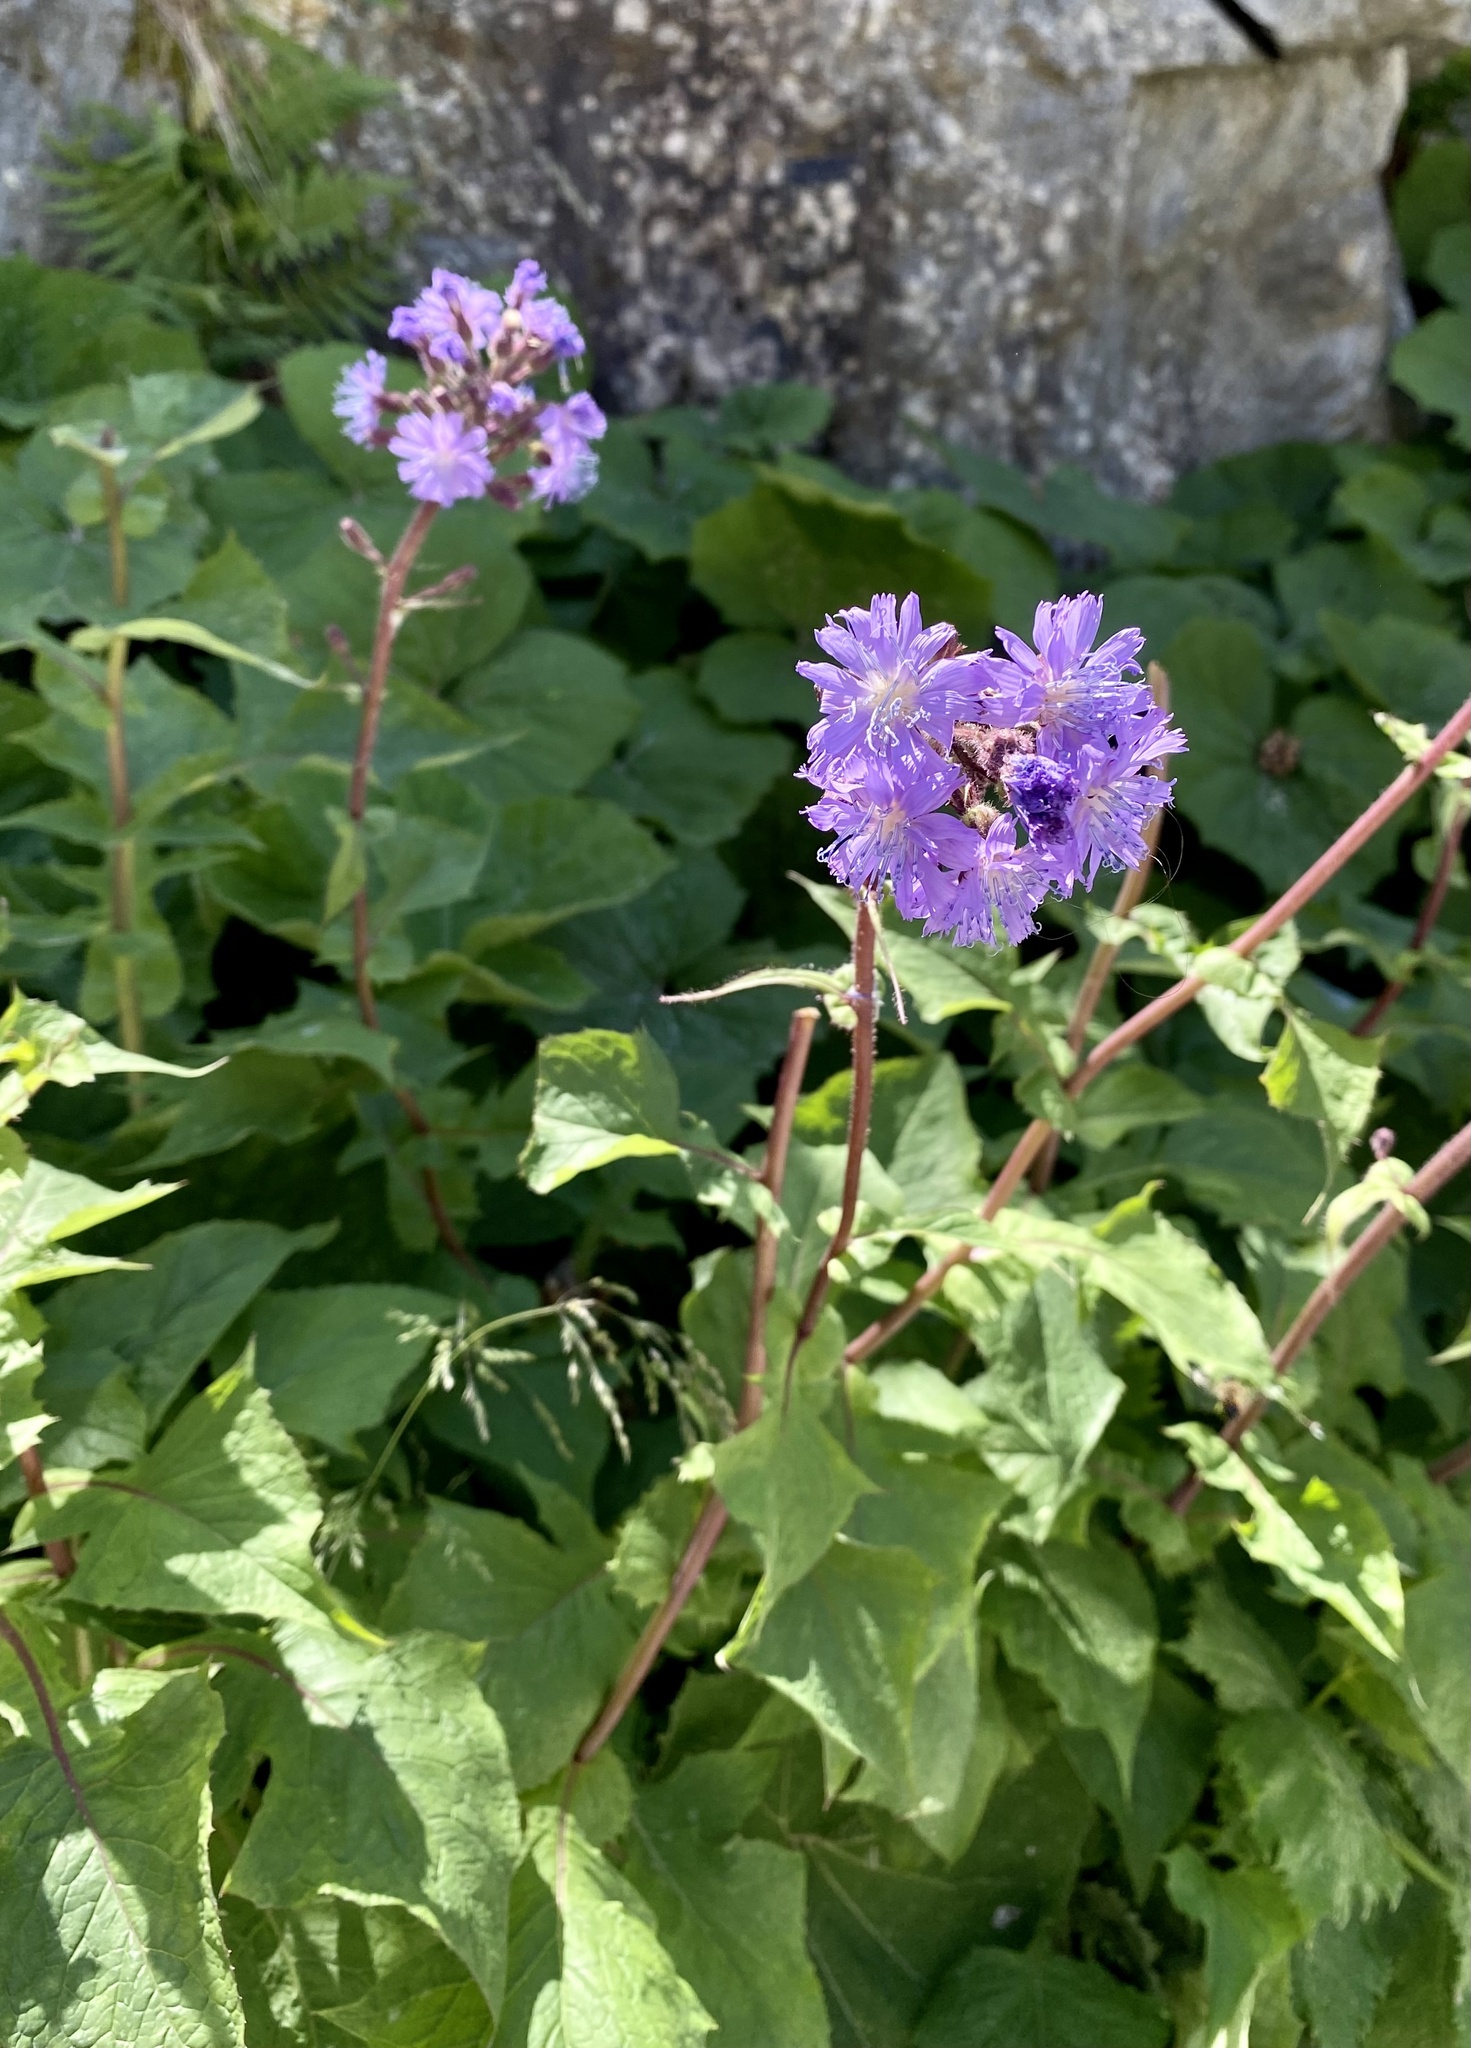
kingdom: Plantae
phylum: Tracheophyta
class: Magnoliopsida
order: Asterales
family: Asteraceae
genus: Cicerbita
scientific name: Cicerbita alpina
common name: Alpine blue-sow-thistle
